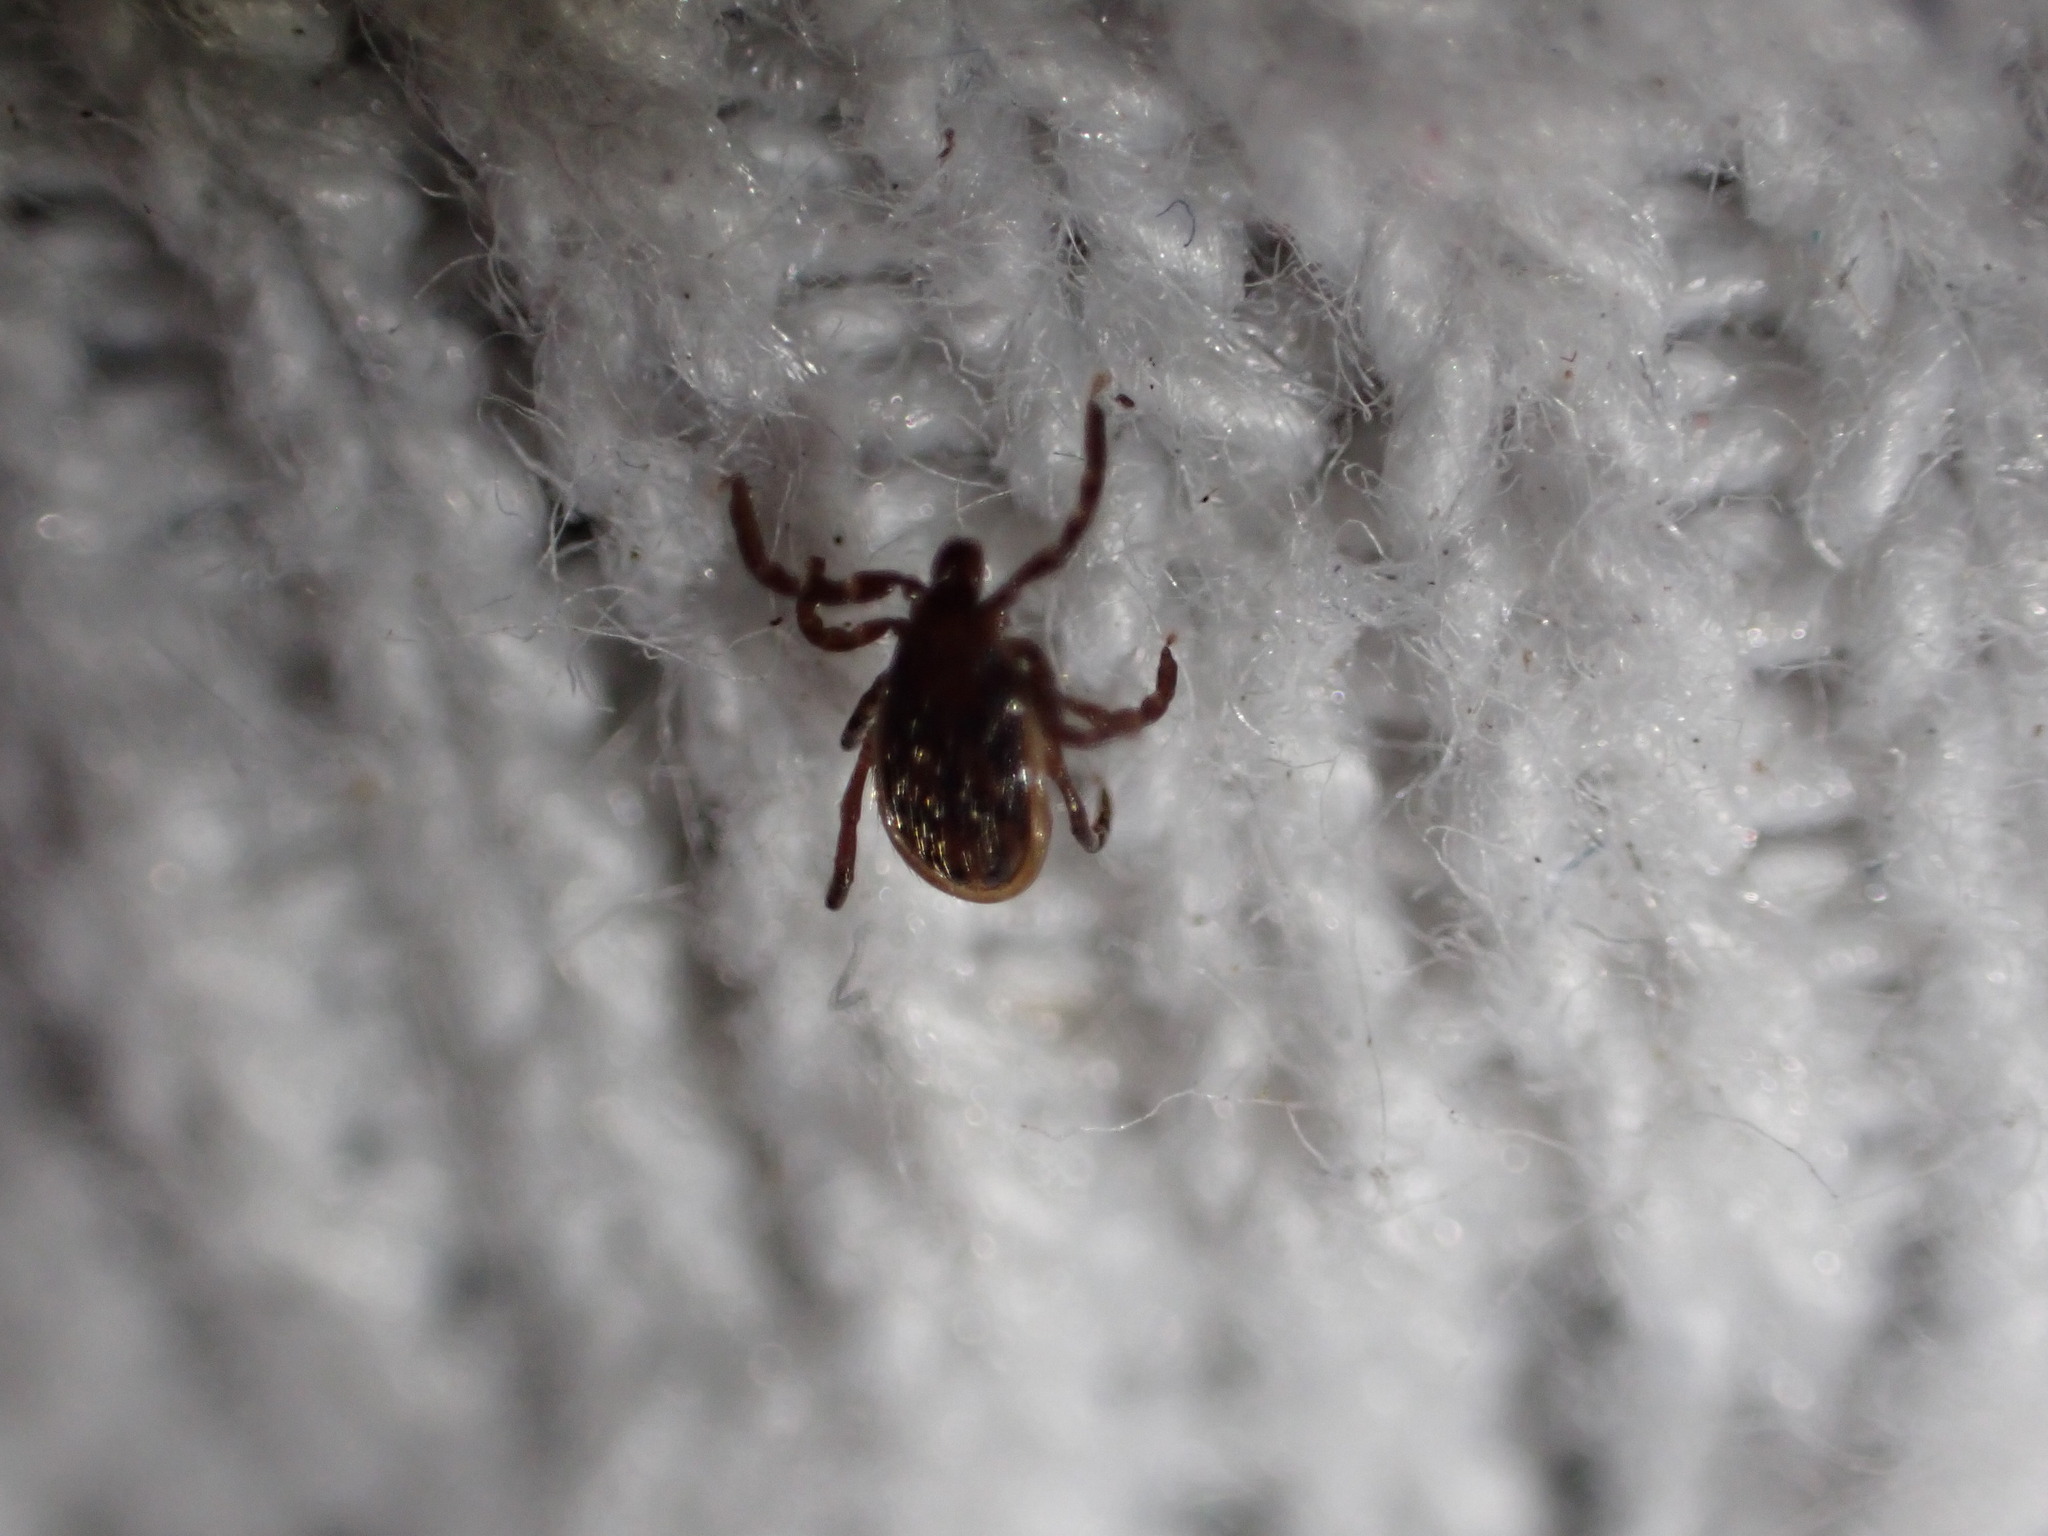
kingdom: Animalia
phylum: Arthropoda
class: Arachnida
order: Ixodida
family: Ixodidae
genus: Ixodes
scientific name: Ixodes scapularis
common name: Black legged tick
